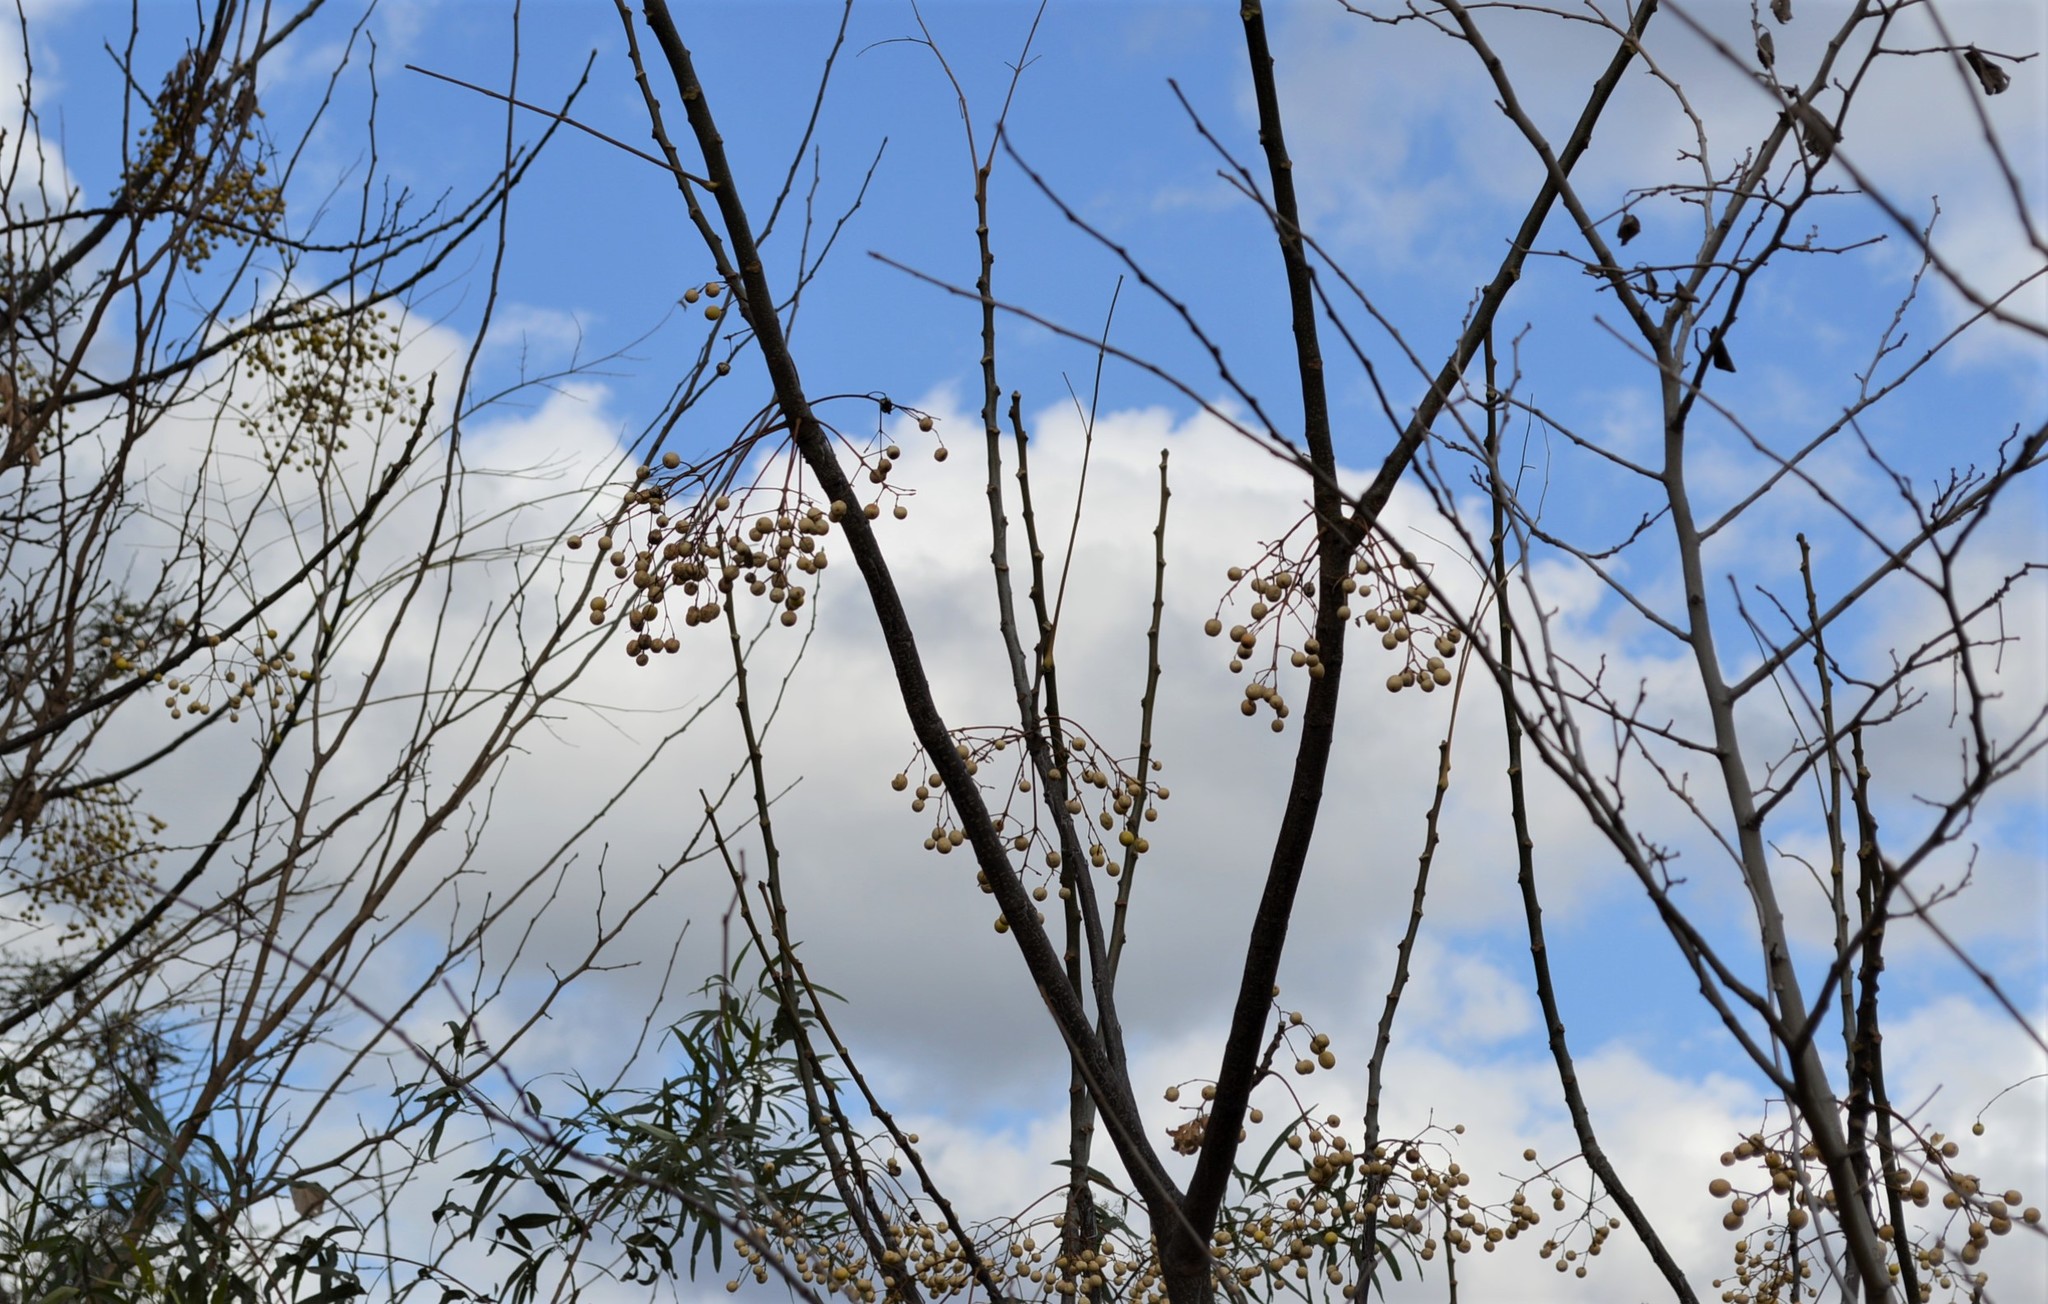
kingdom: Plantae
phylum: Tracheophyta
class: Magnoliopsida
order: Sapindales
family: Meliaceae
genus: Melia
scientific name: Melia azedarach
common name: Chinaberrytree
